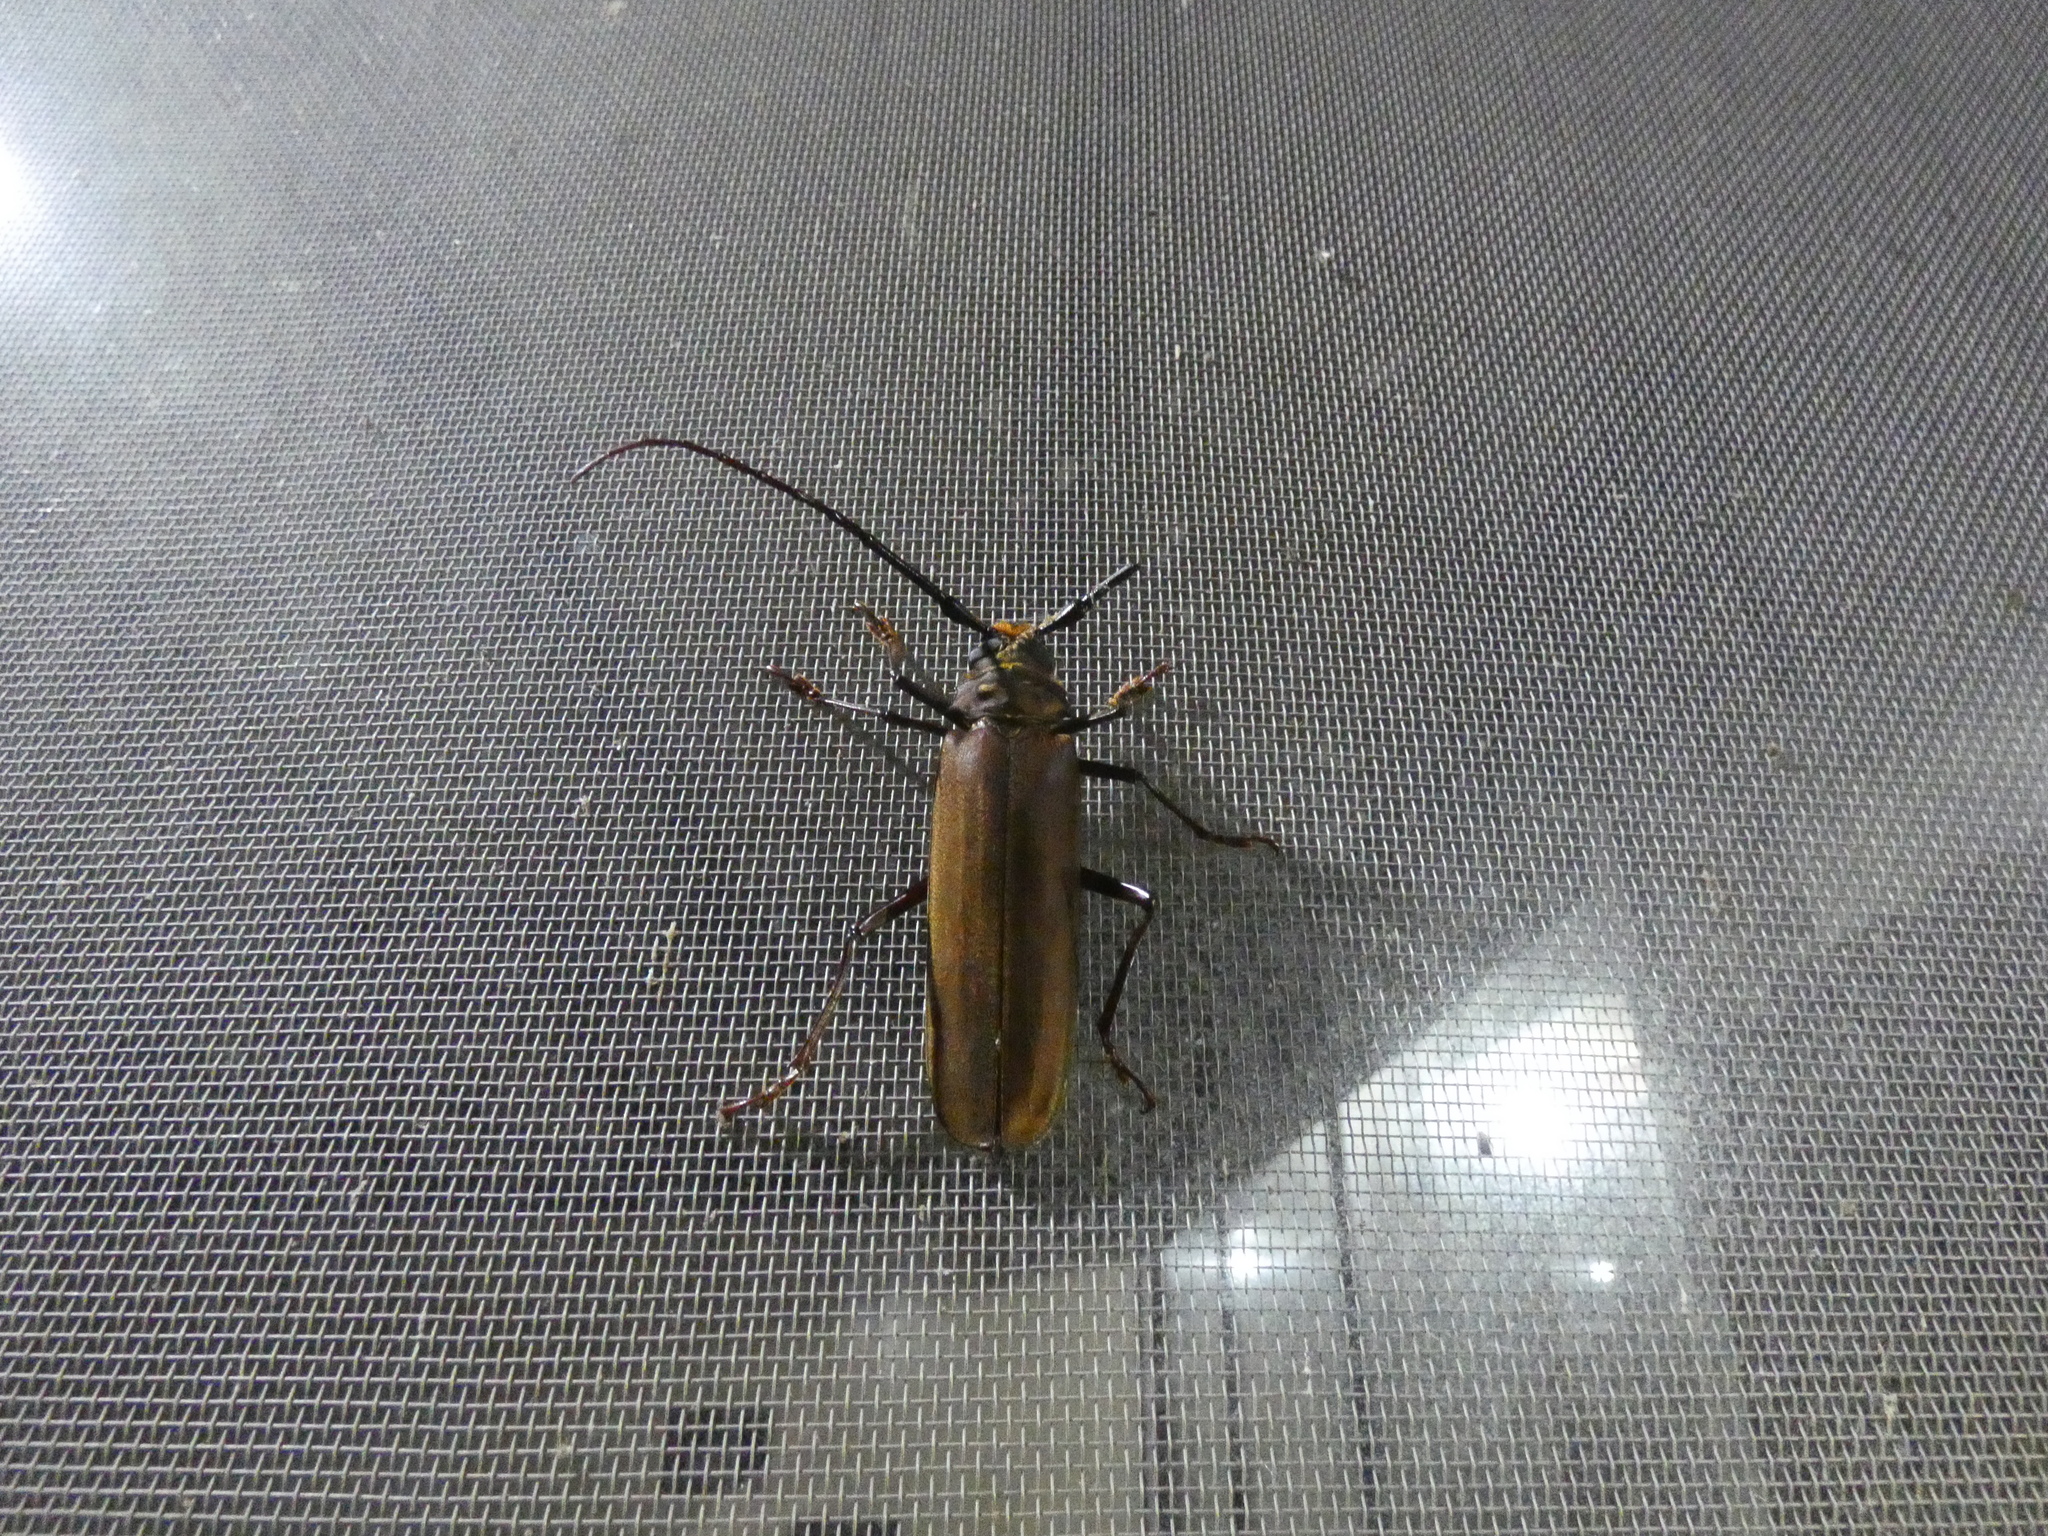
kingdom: Animalia
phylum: Arthropoda
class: Insecta
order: Coleoptera
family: Cerambycidae
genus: Orthomegas
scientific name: Orthomegas cinnamomeus
